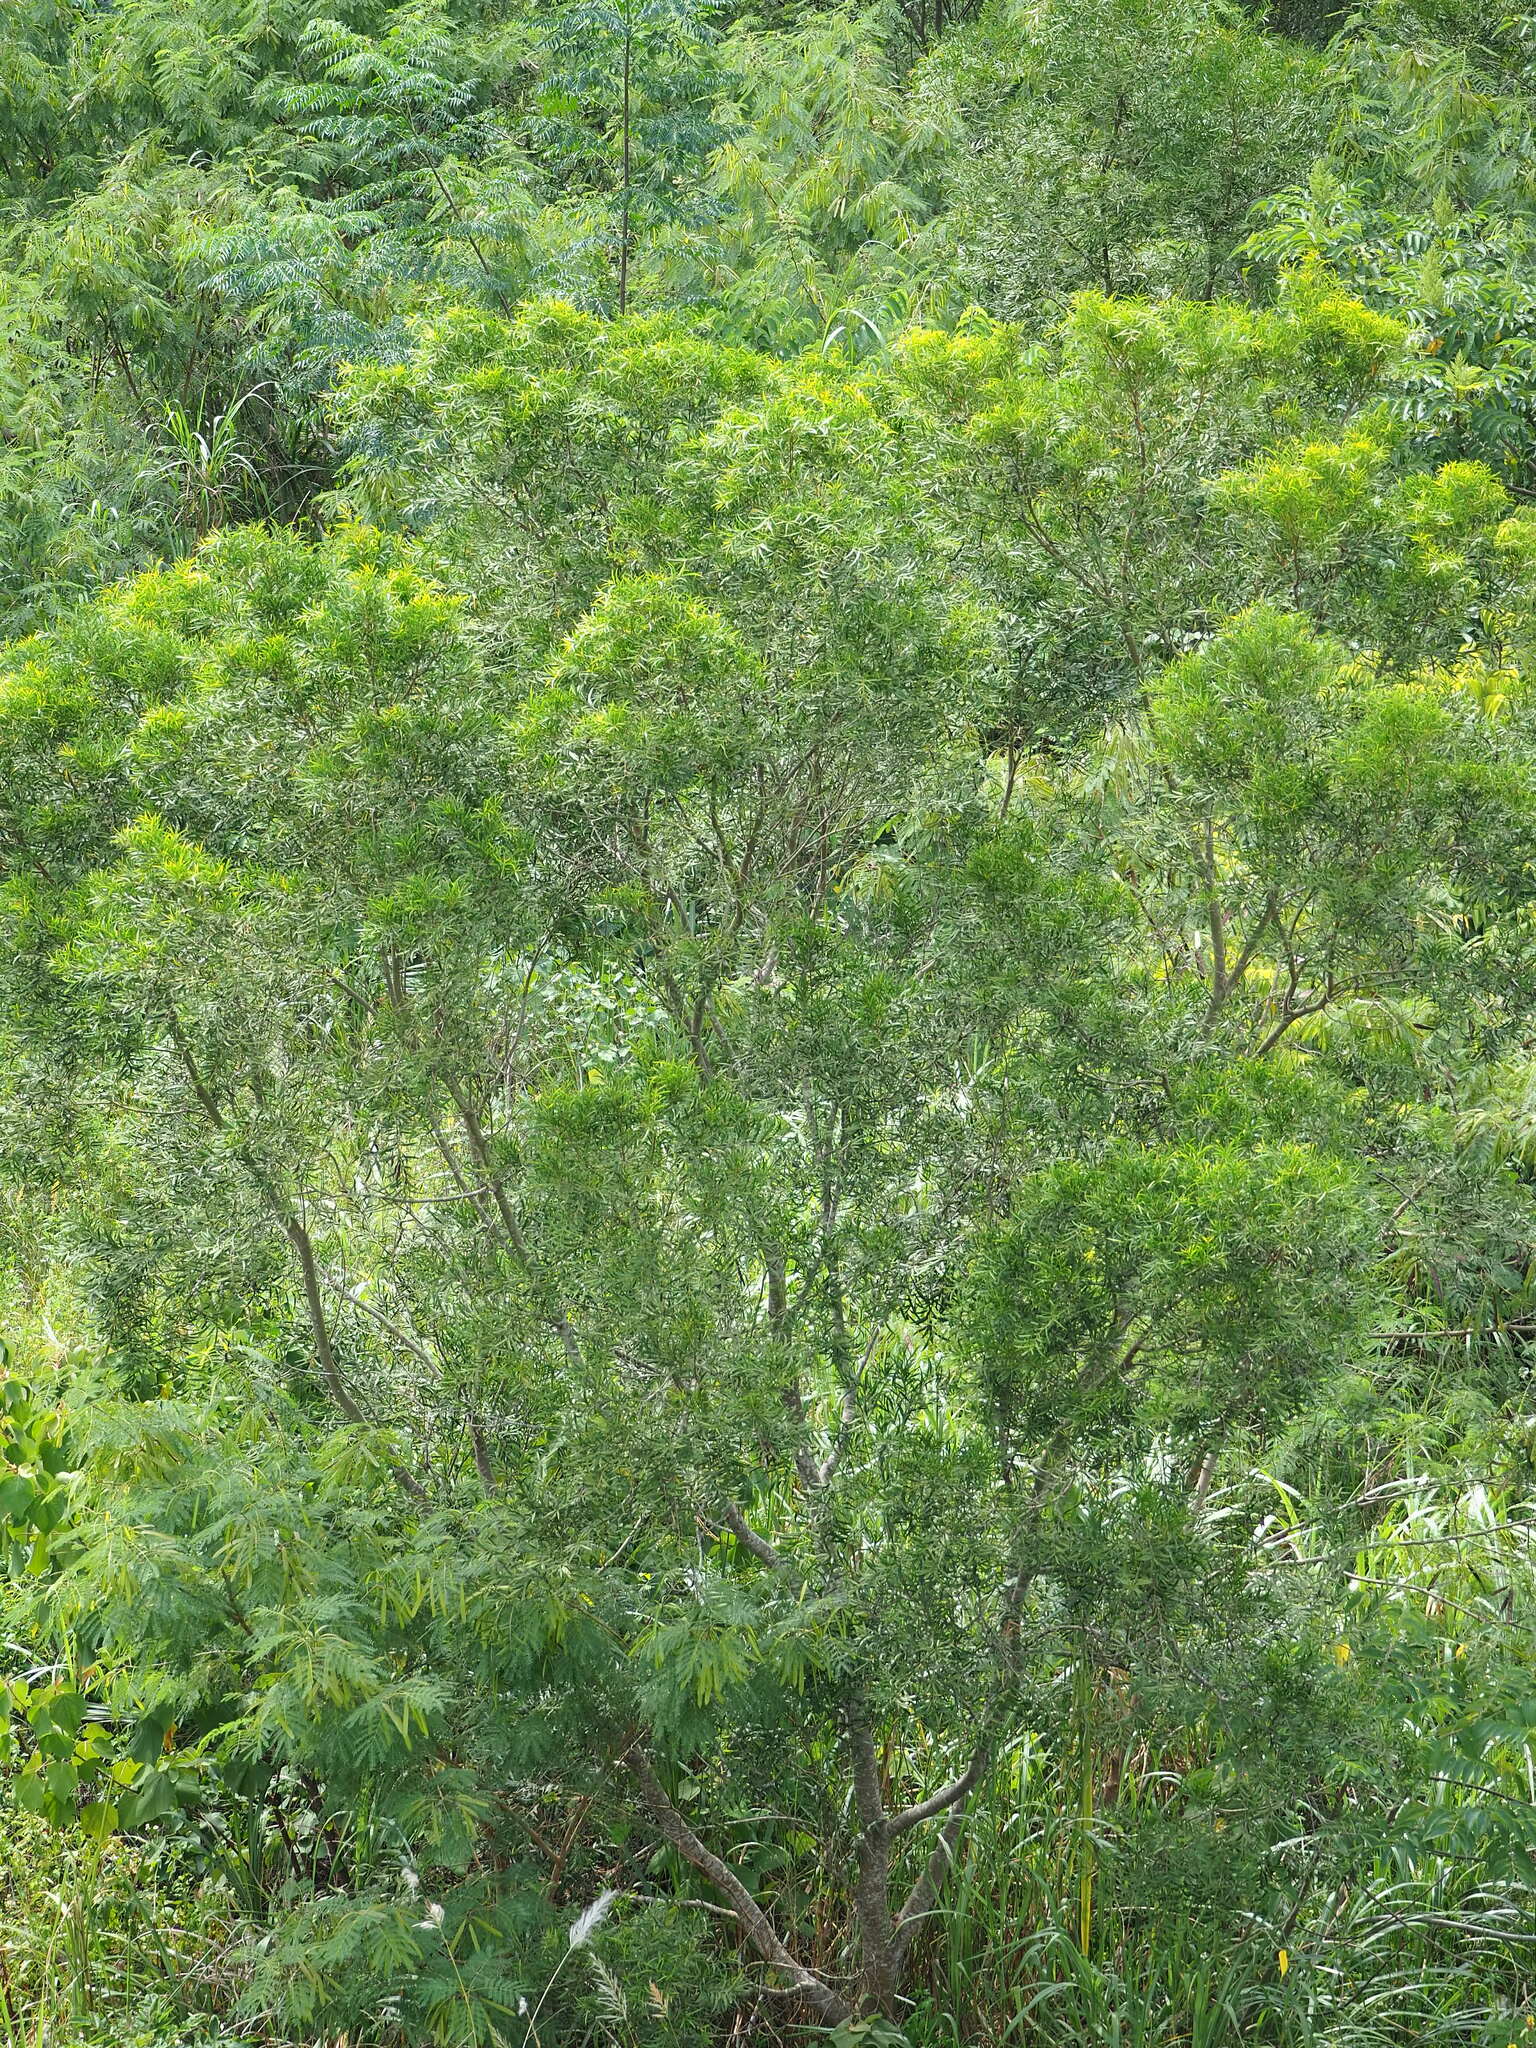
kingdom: Plantae
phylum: Tracheophyta
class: Magnoliopsida
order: Fabales
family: Fabaceae
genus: Acacia
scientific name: Acacia confusa
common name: Formosan koa
